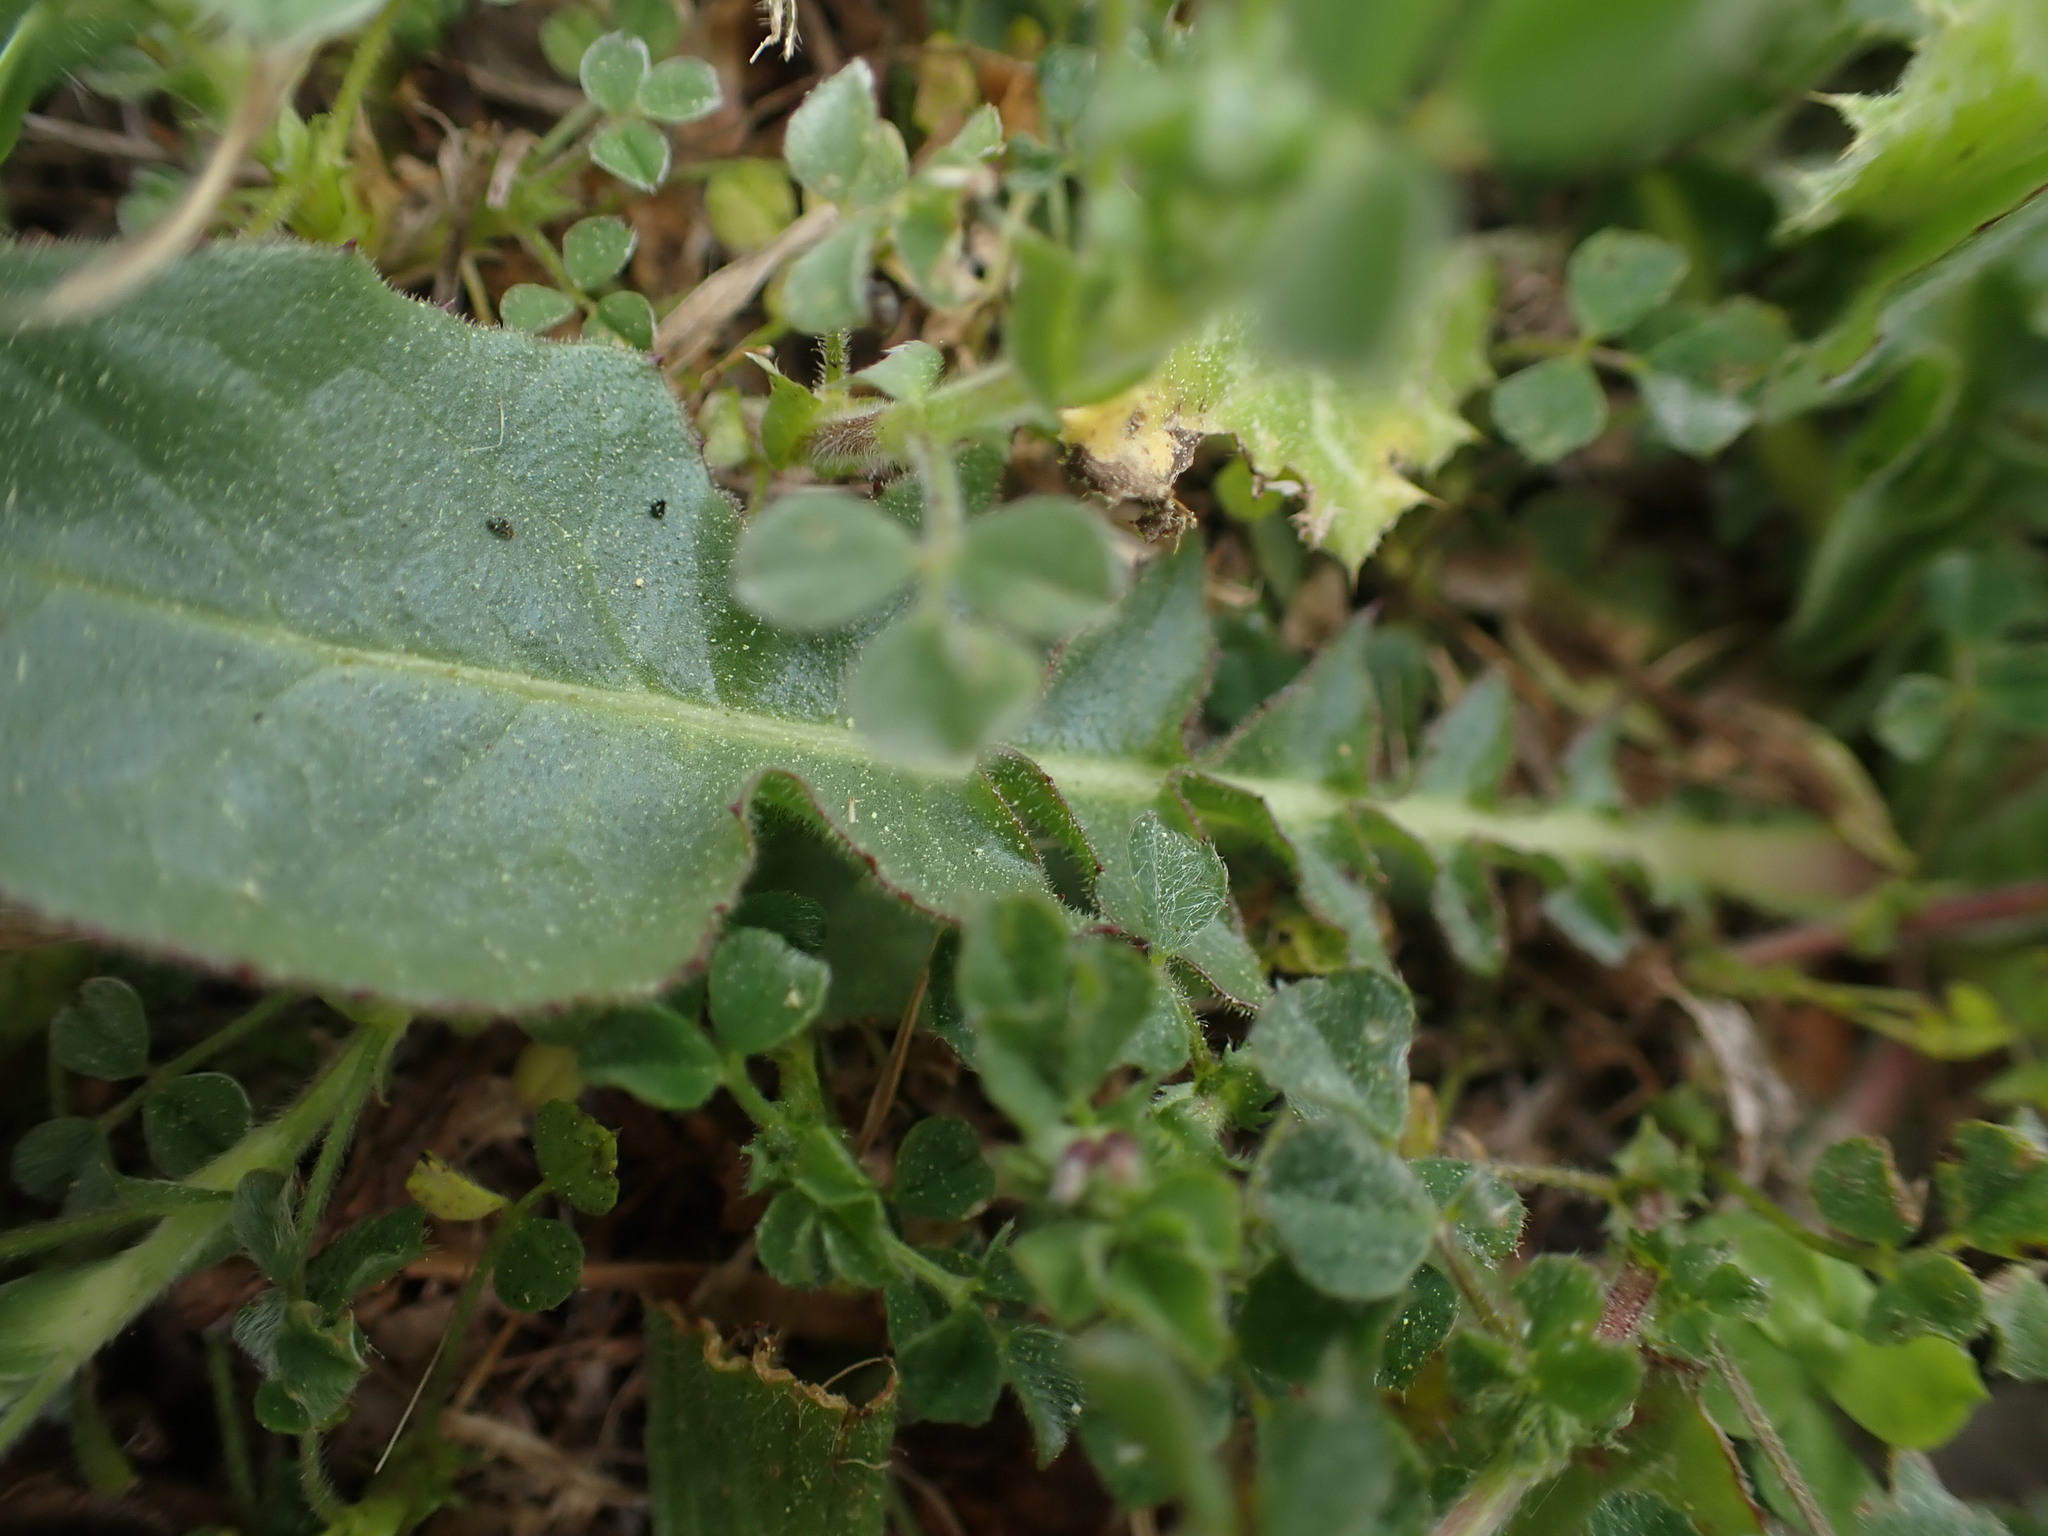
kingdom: Plantae
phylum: Tracheophyta
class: Magnoliopsida
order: Asterales
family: Asteraceae
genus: Urospermum
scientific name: Urospermum dalechampii
